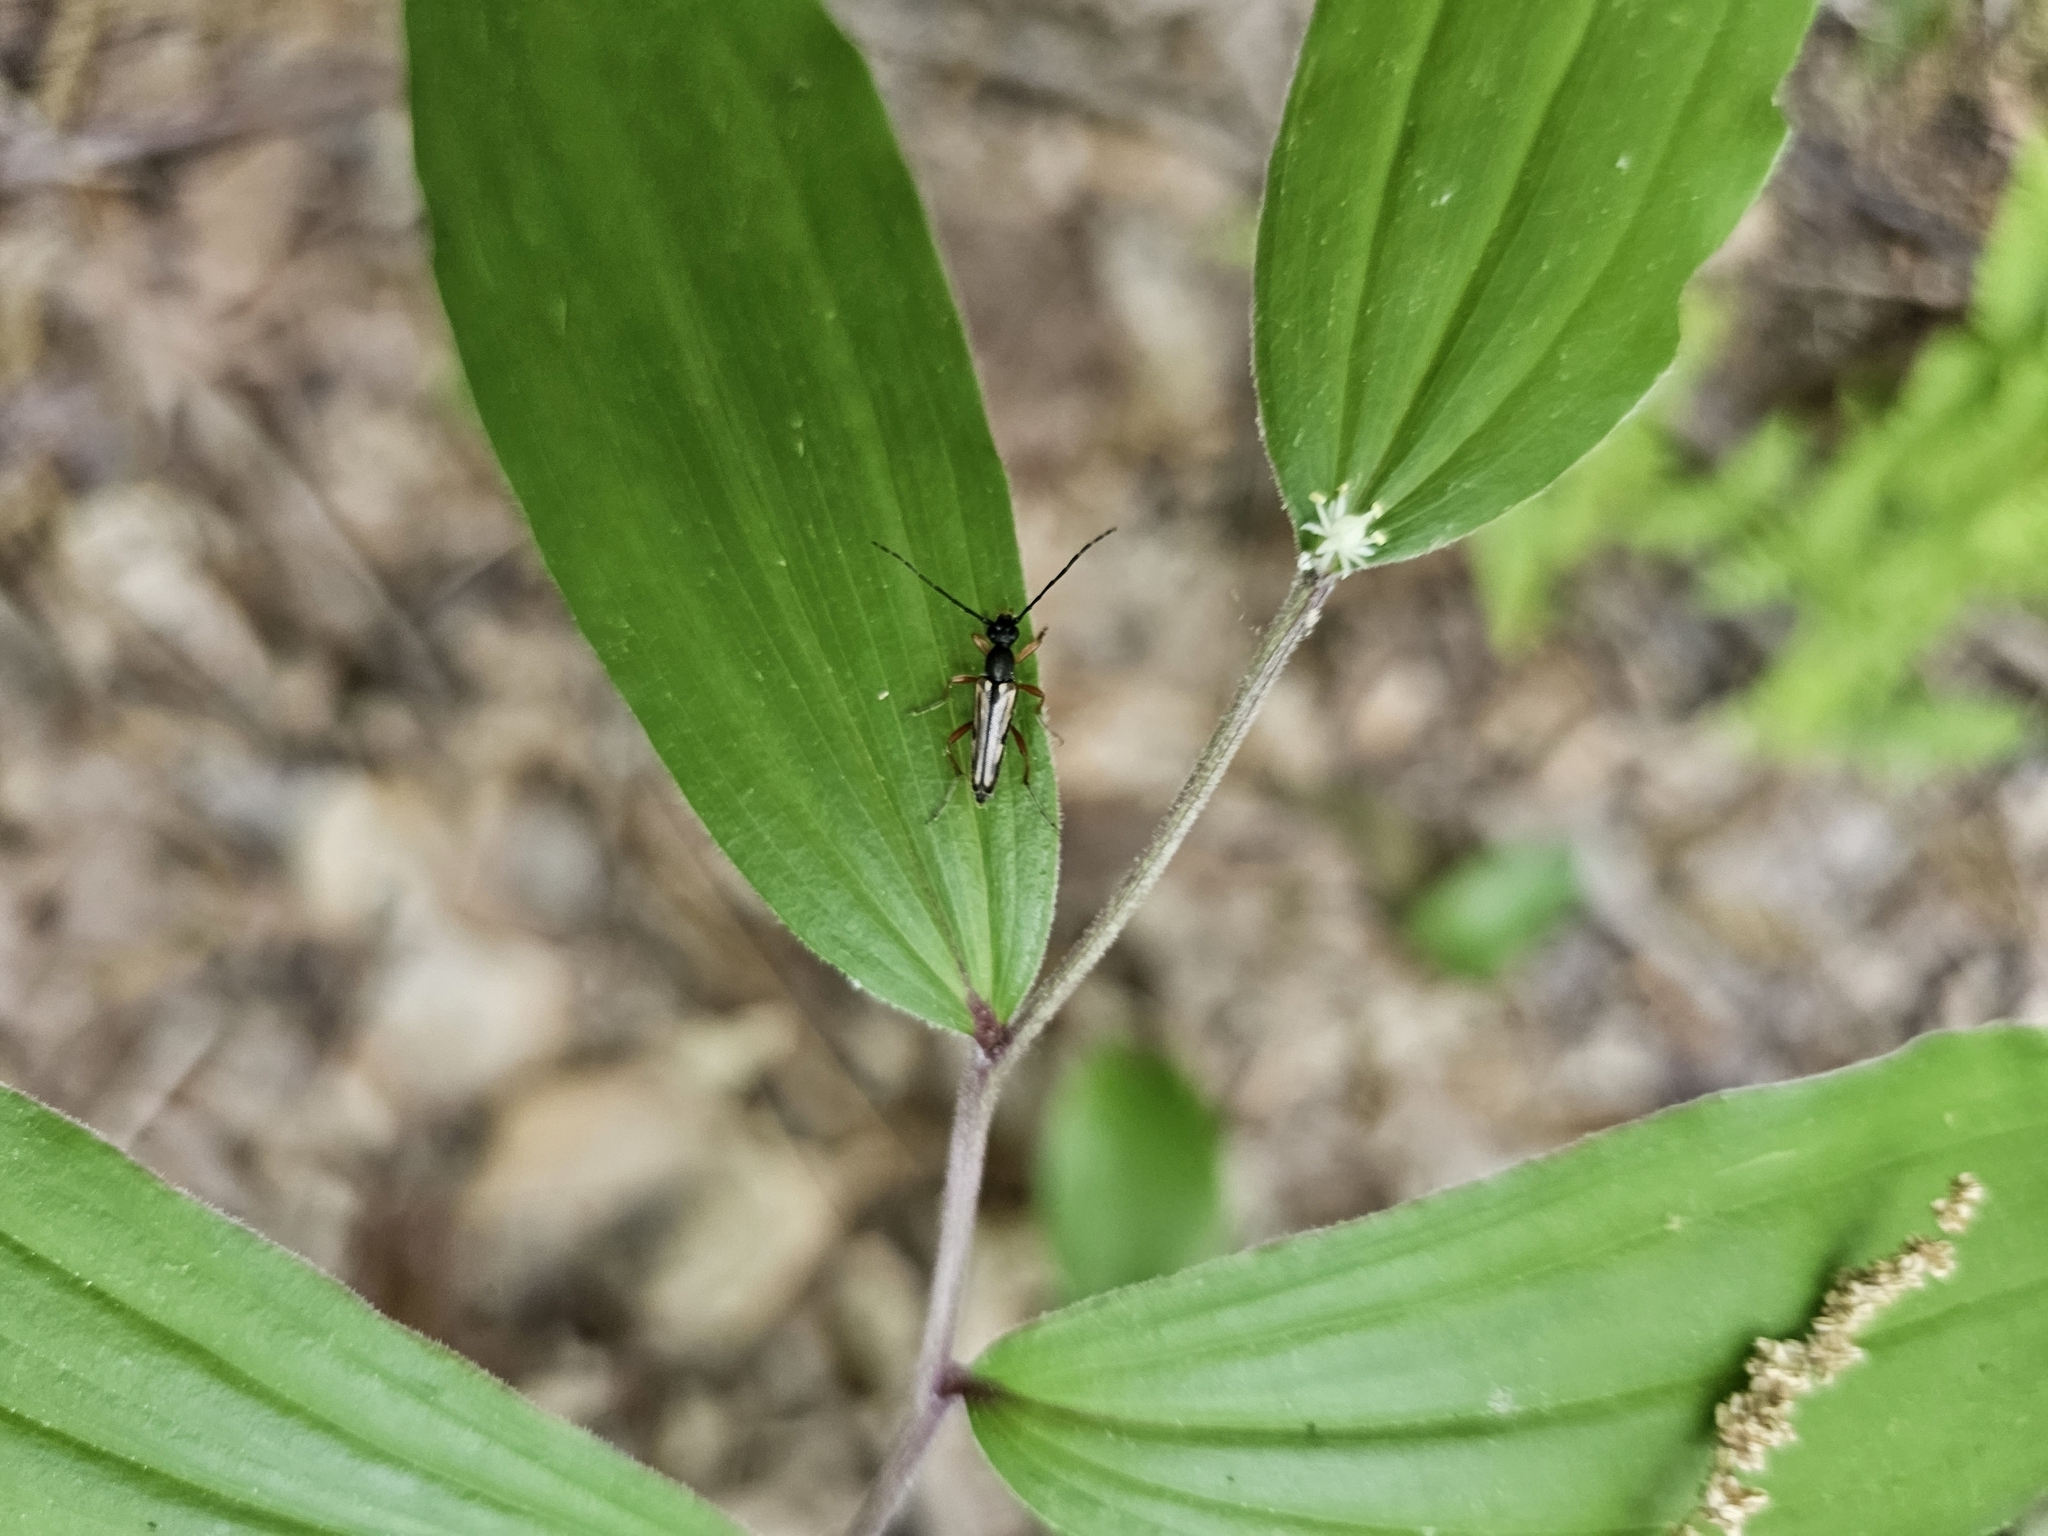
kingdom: Animalia
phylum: Arthropoda
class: Insecta
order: Coleoptera
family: Cerambycidae
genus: Analeptura
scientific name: Analeptura lineola
